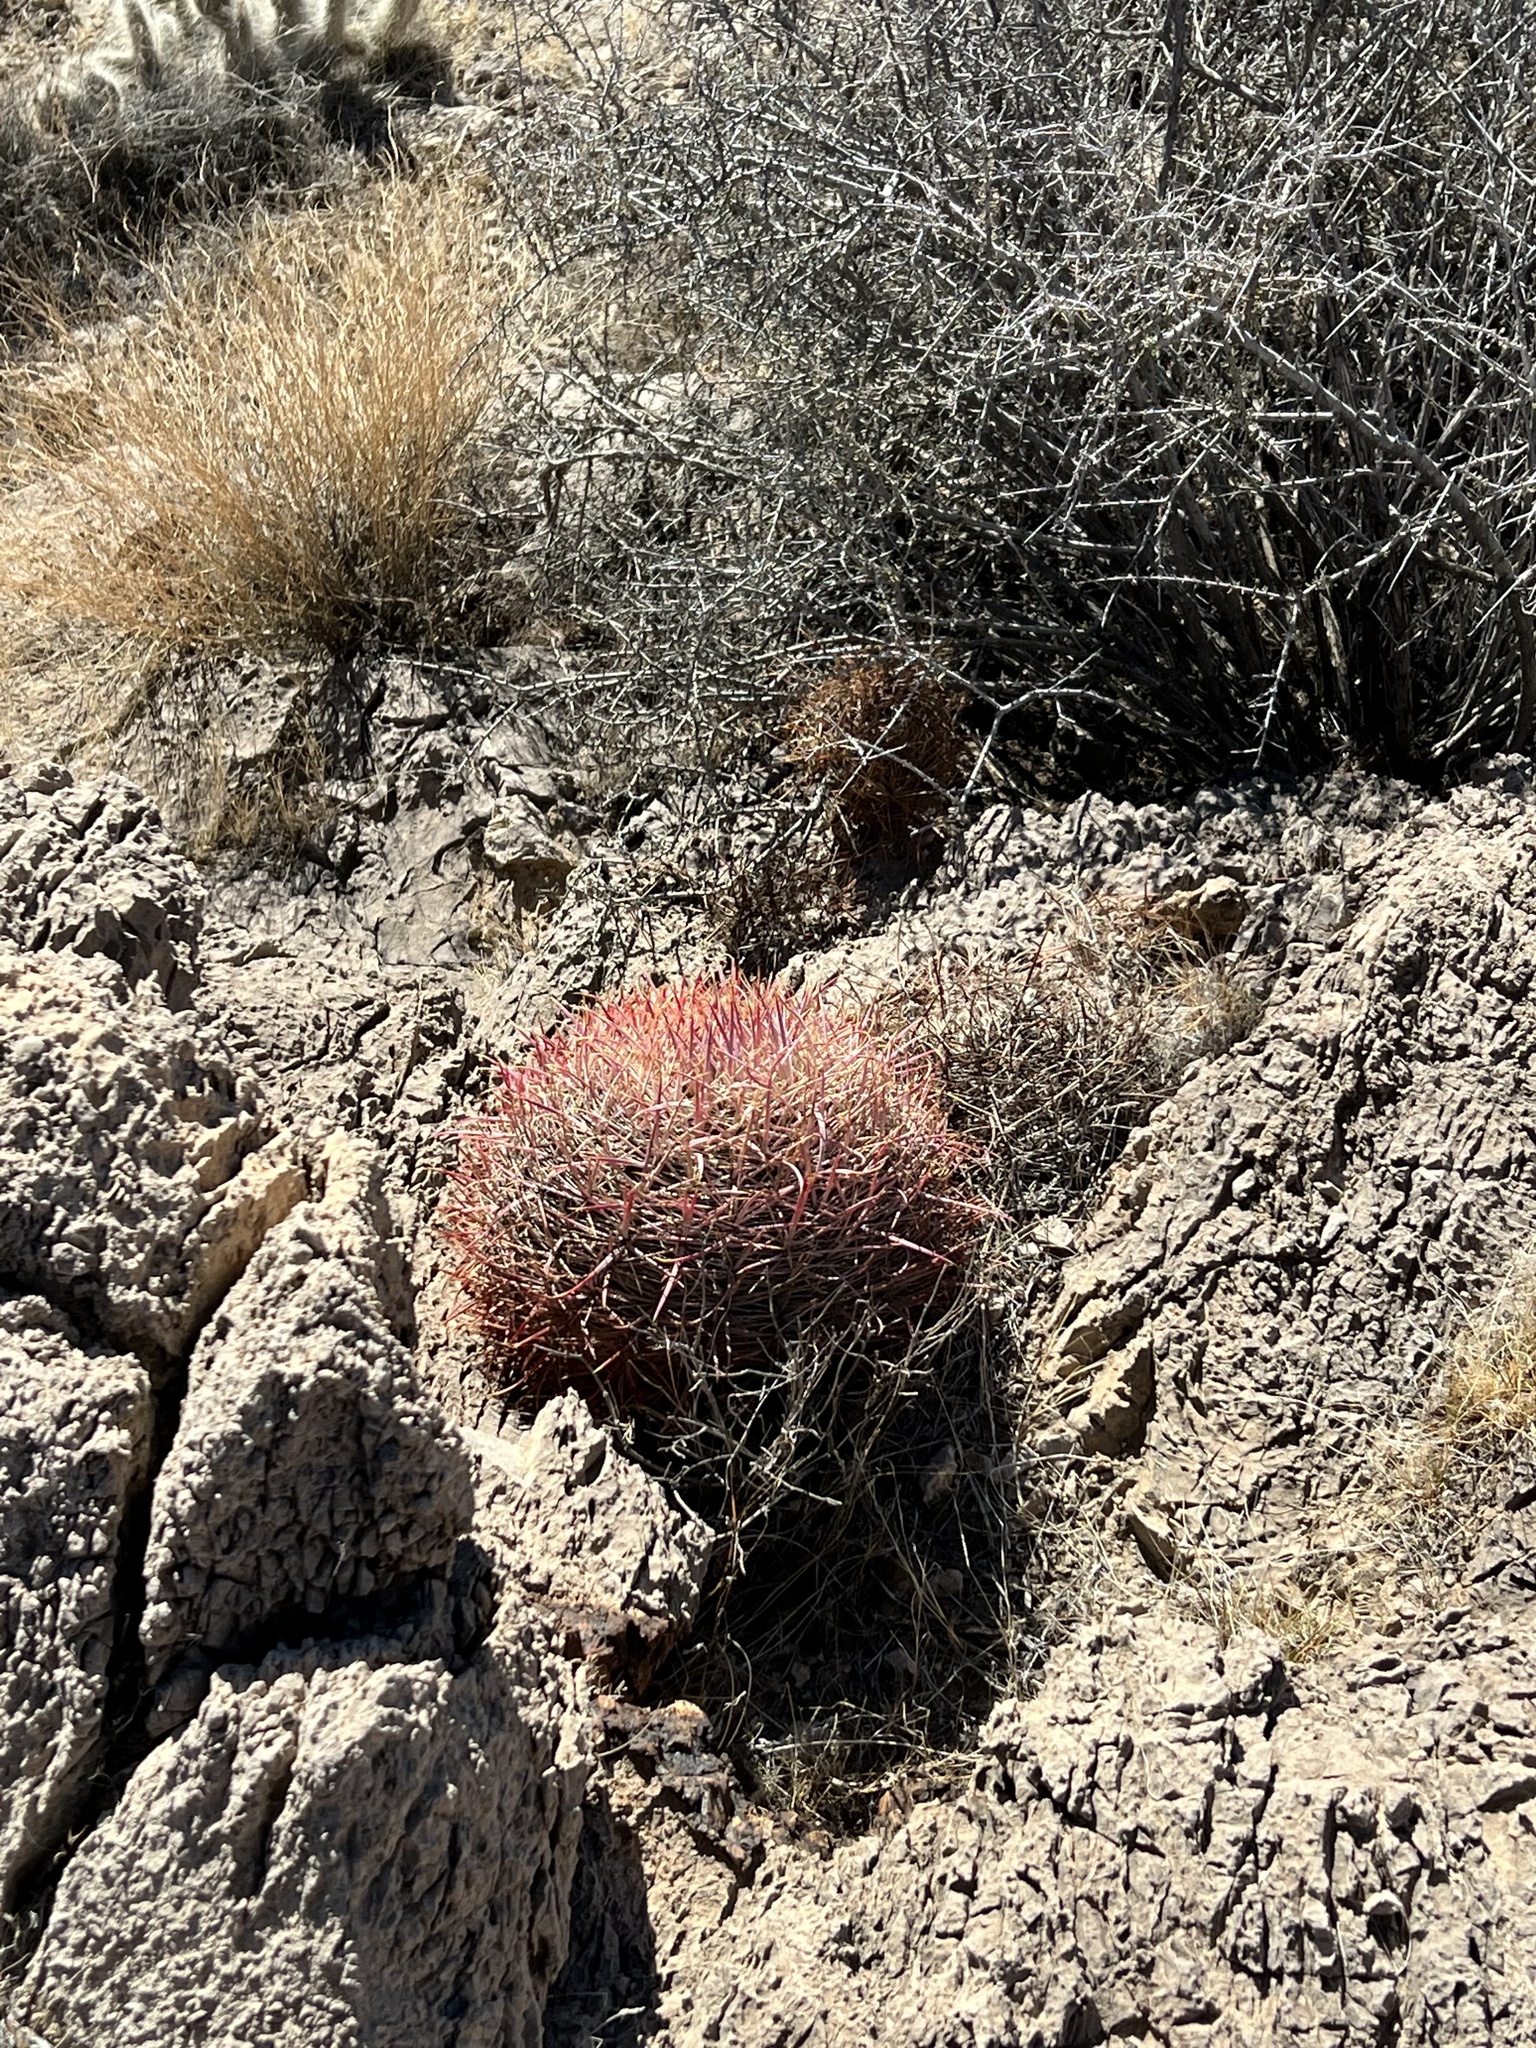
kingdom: Plantae
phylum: Tracheophyta
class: Magnoliopsida
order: Caryophyllales
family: Cactaceae
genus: Ferocactus
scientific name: Ferocactus cylindraceus
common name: California barrel cactus
